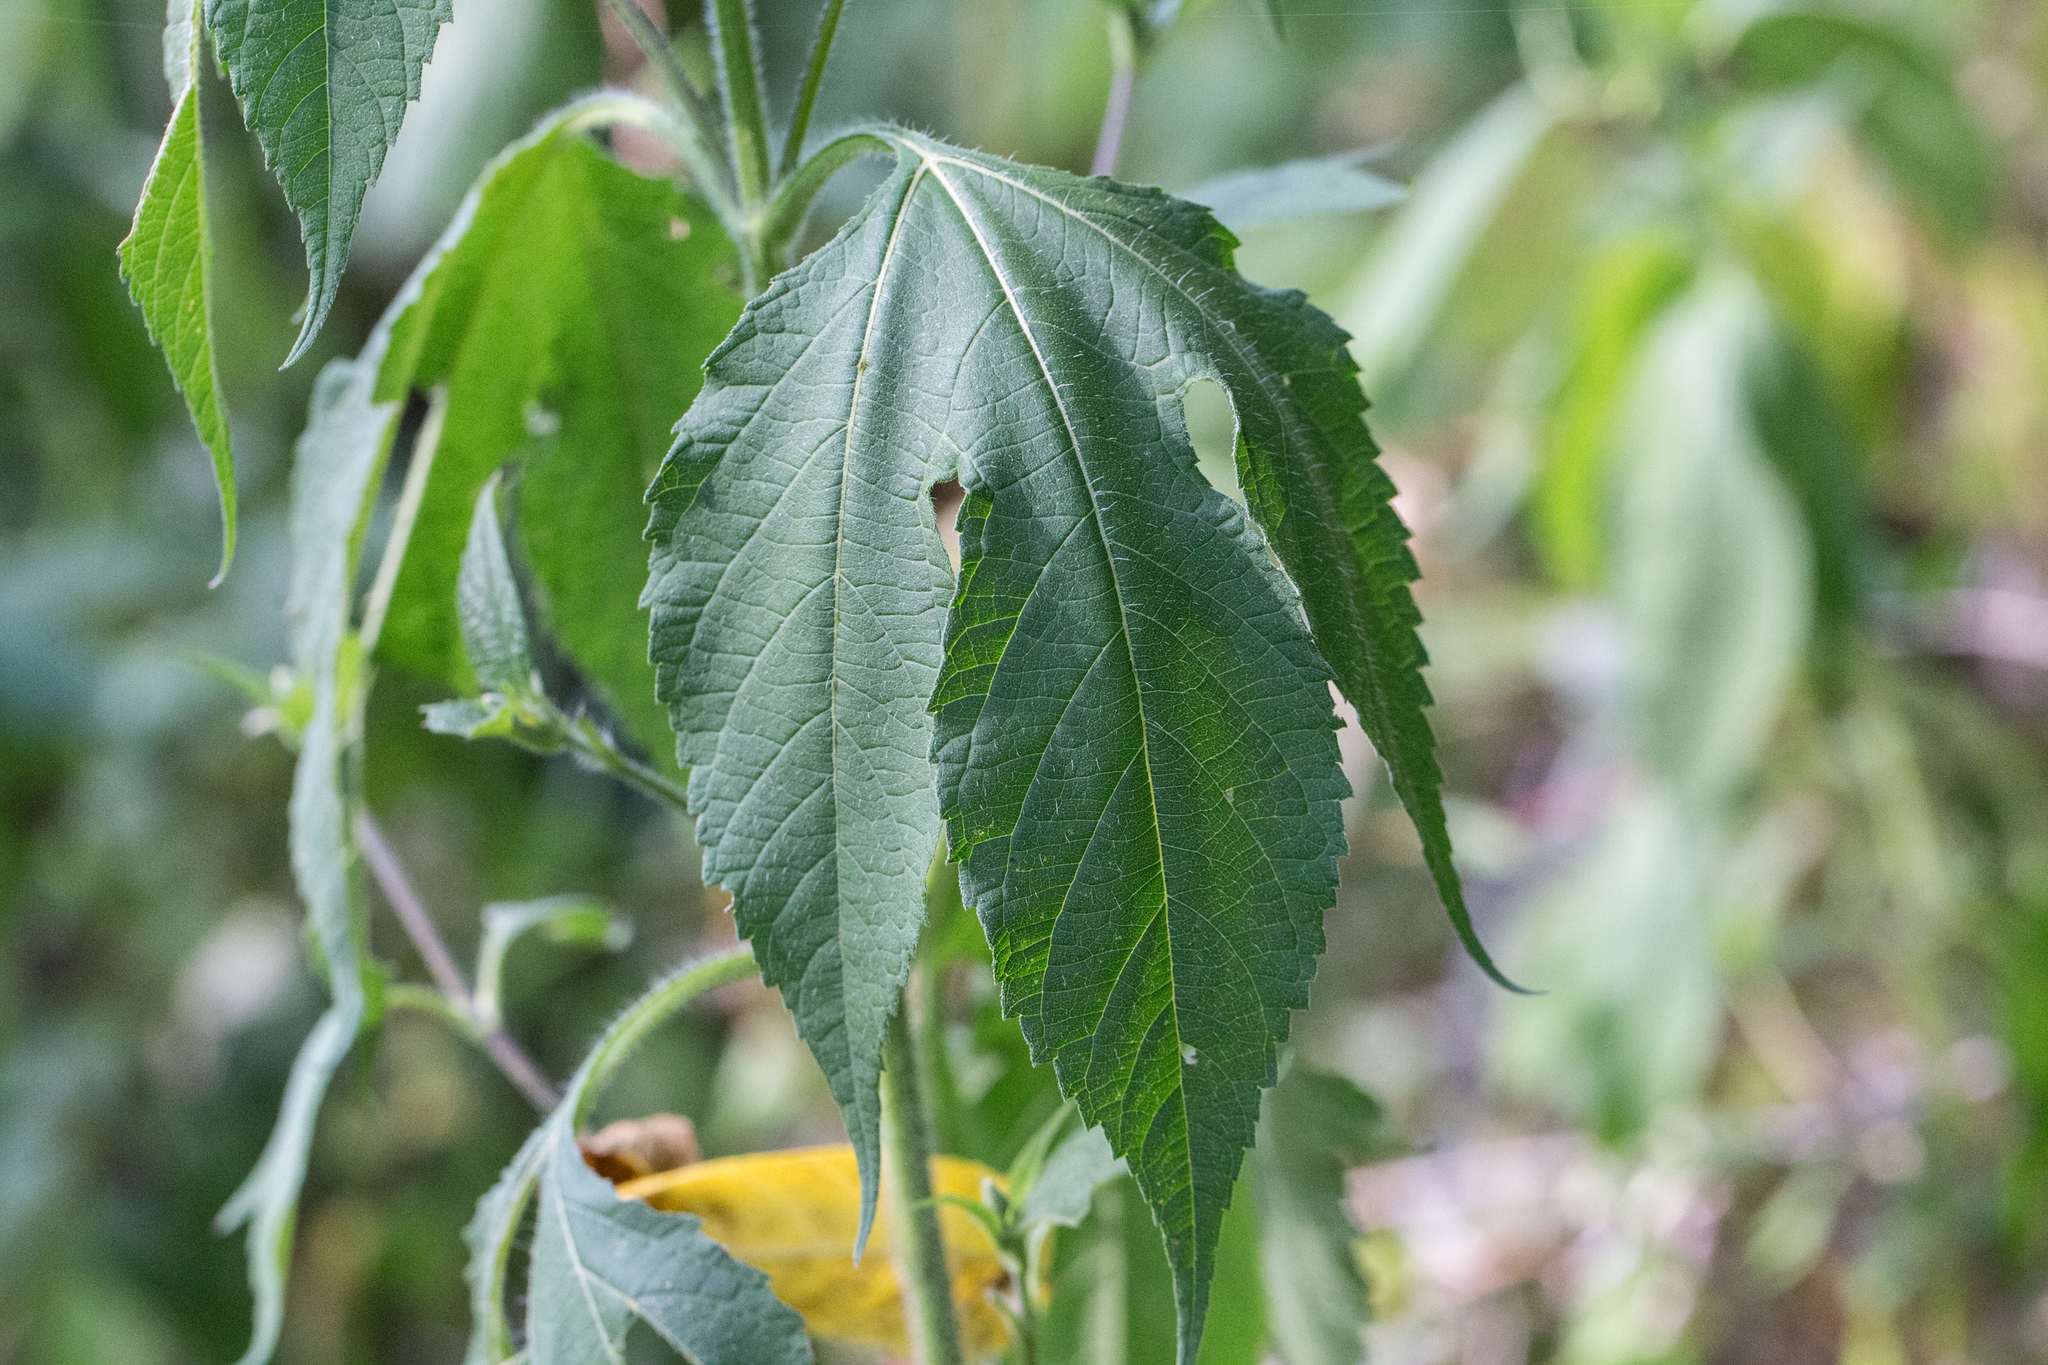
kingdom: Plantae
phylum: Tracheophyta
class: Magnoliopsida
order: Asterales
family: Asteraceae
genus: Ambrosia
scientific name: Ambrosia trifida
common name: Giant ragweed
